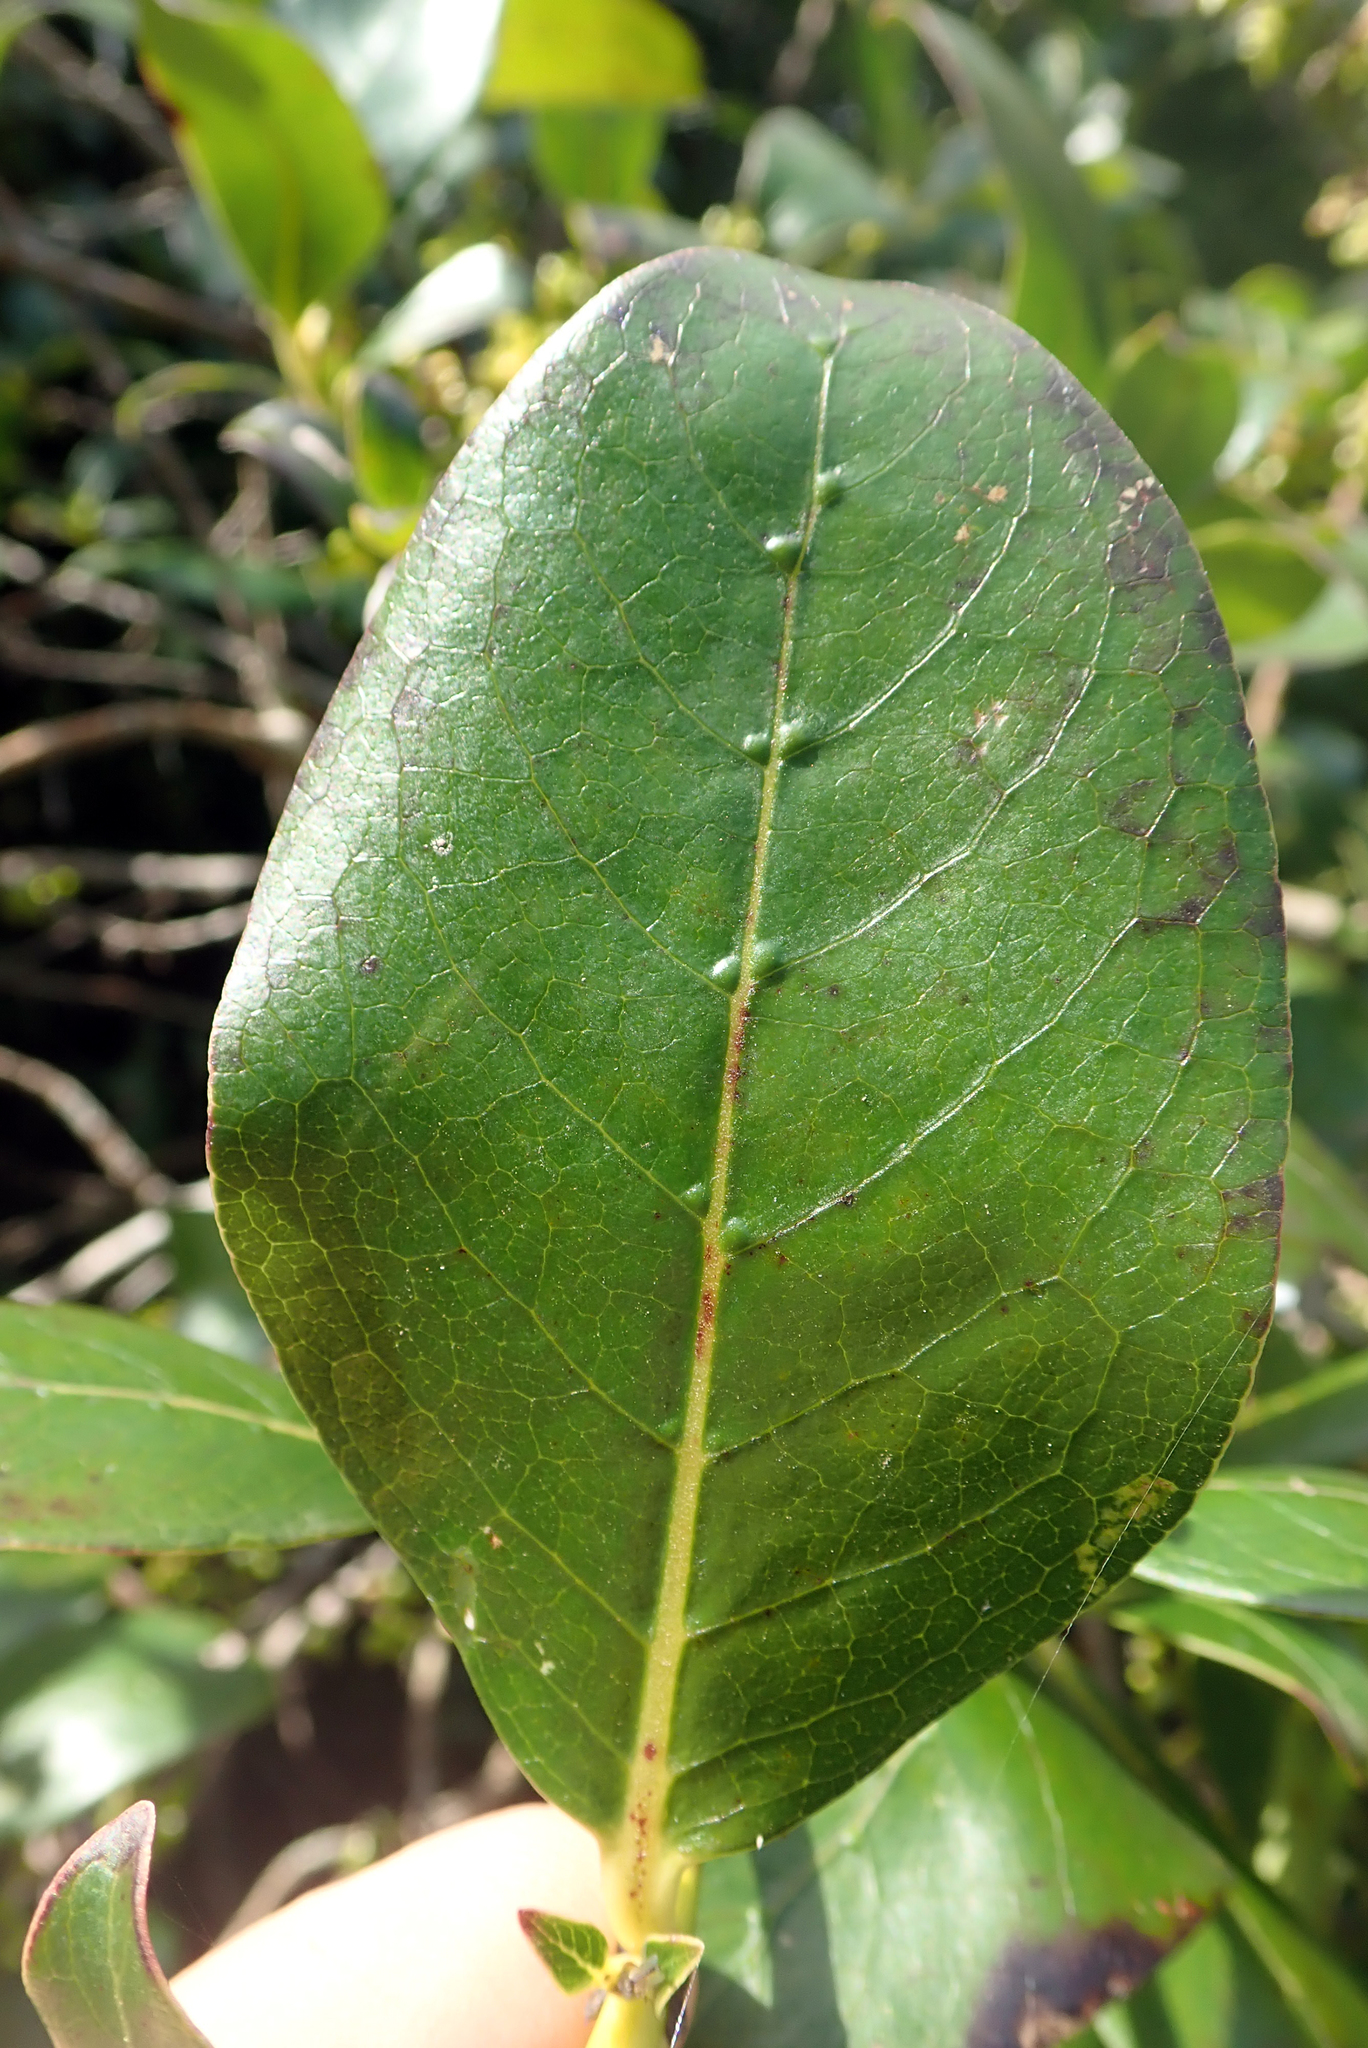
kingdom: Plantae
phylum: Tracheophyta
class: Magnoliopsida
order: Gentianales
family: Rubiaceae
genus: Coprosma
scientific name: Coprosma robusta
